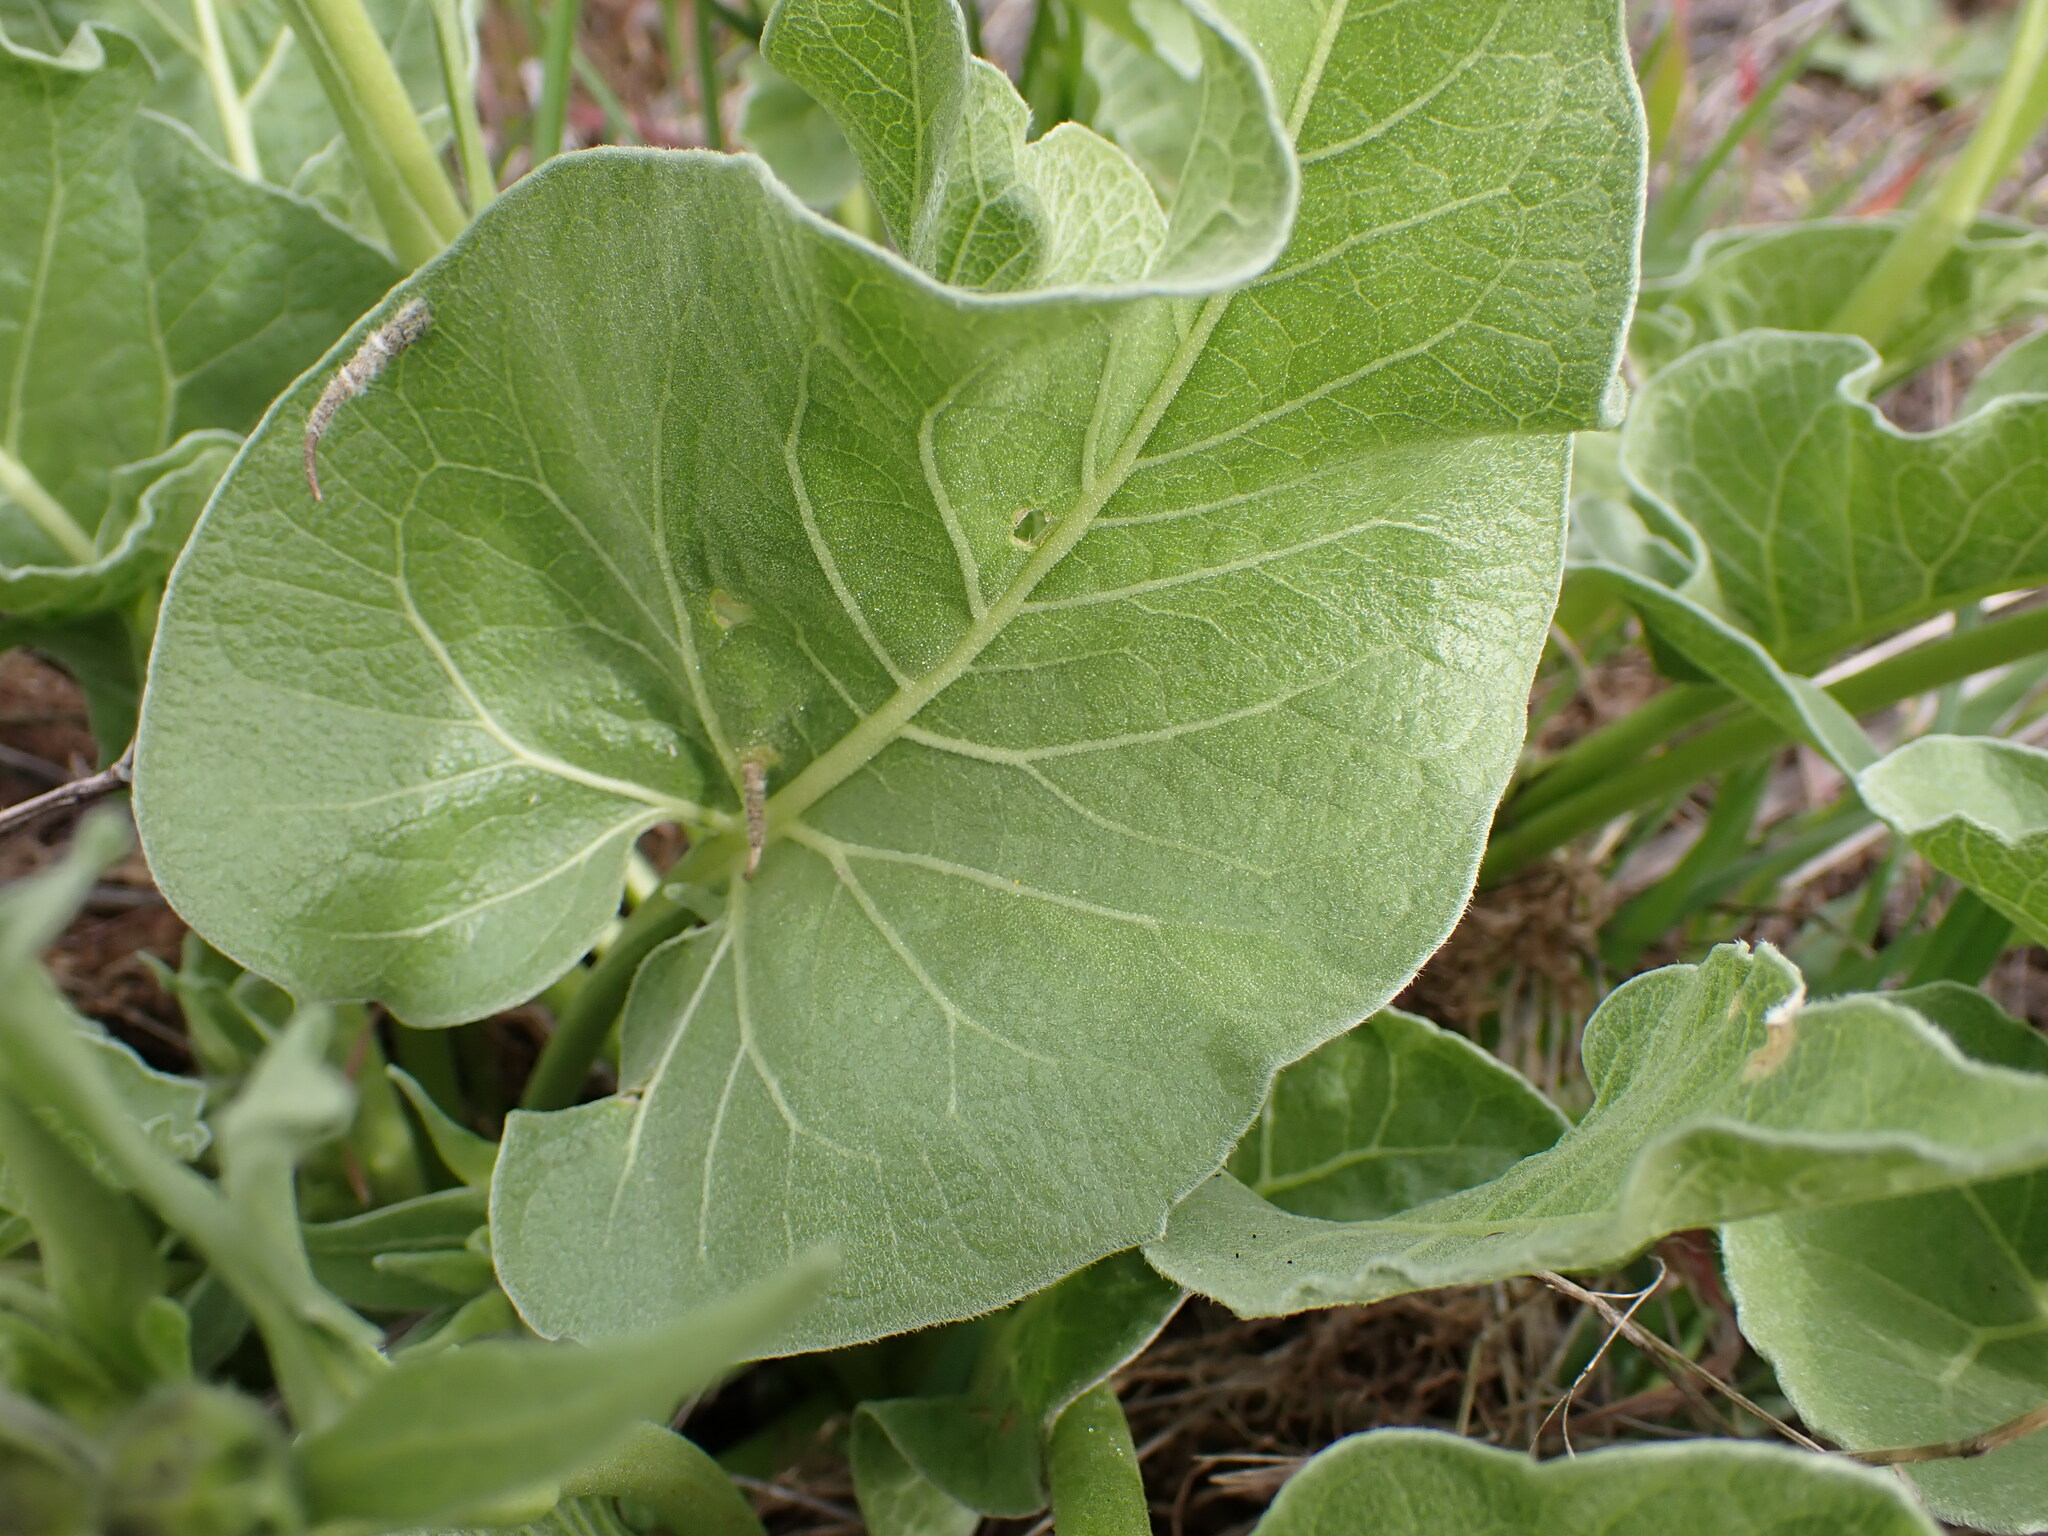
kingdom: Plantae
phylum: Tracheophyta
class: Magnoliopsida
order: Asterales
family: Asteraceae
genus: Balsamorhiza
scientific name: Balsamorhiza careyana
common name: Carey's balsamroot
